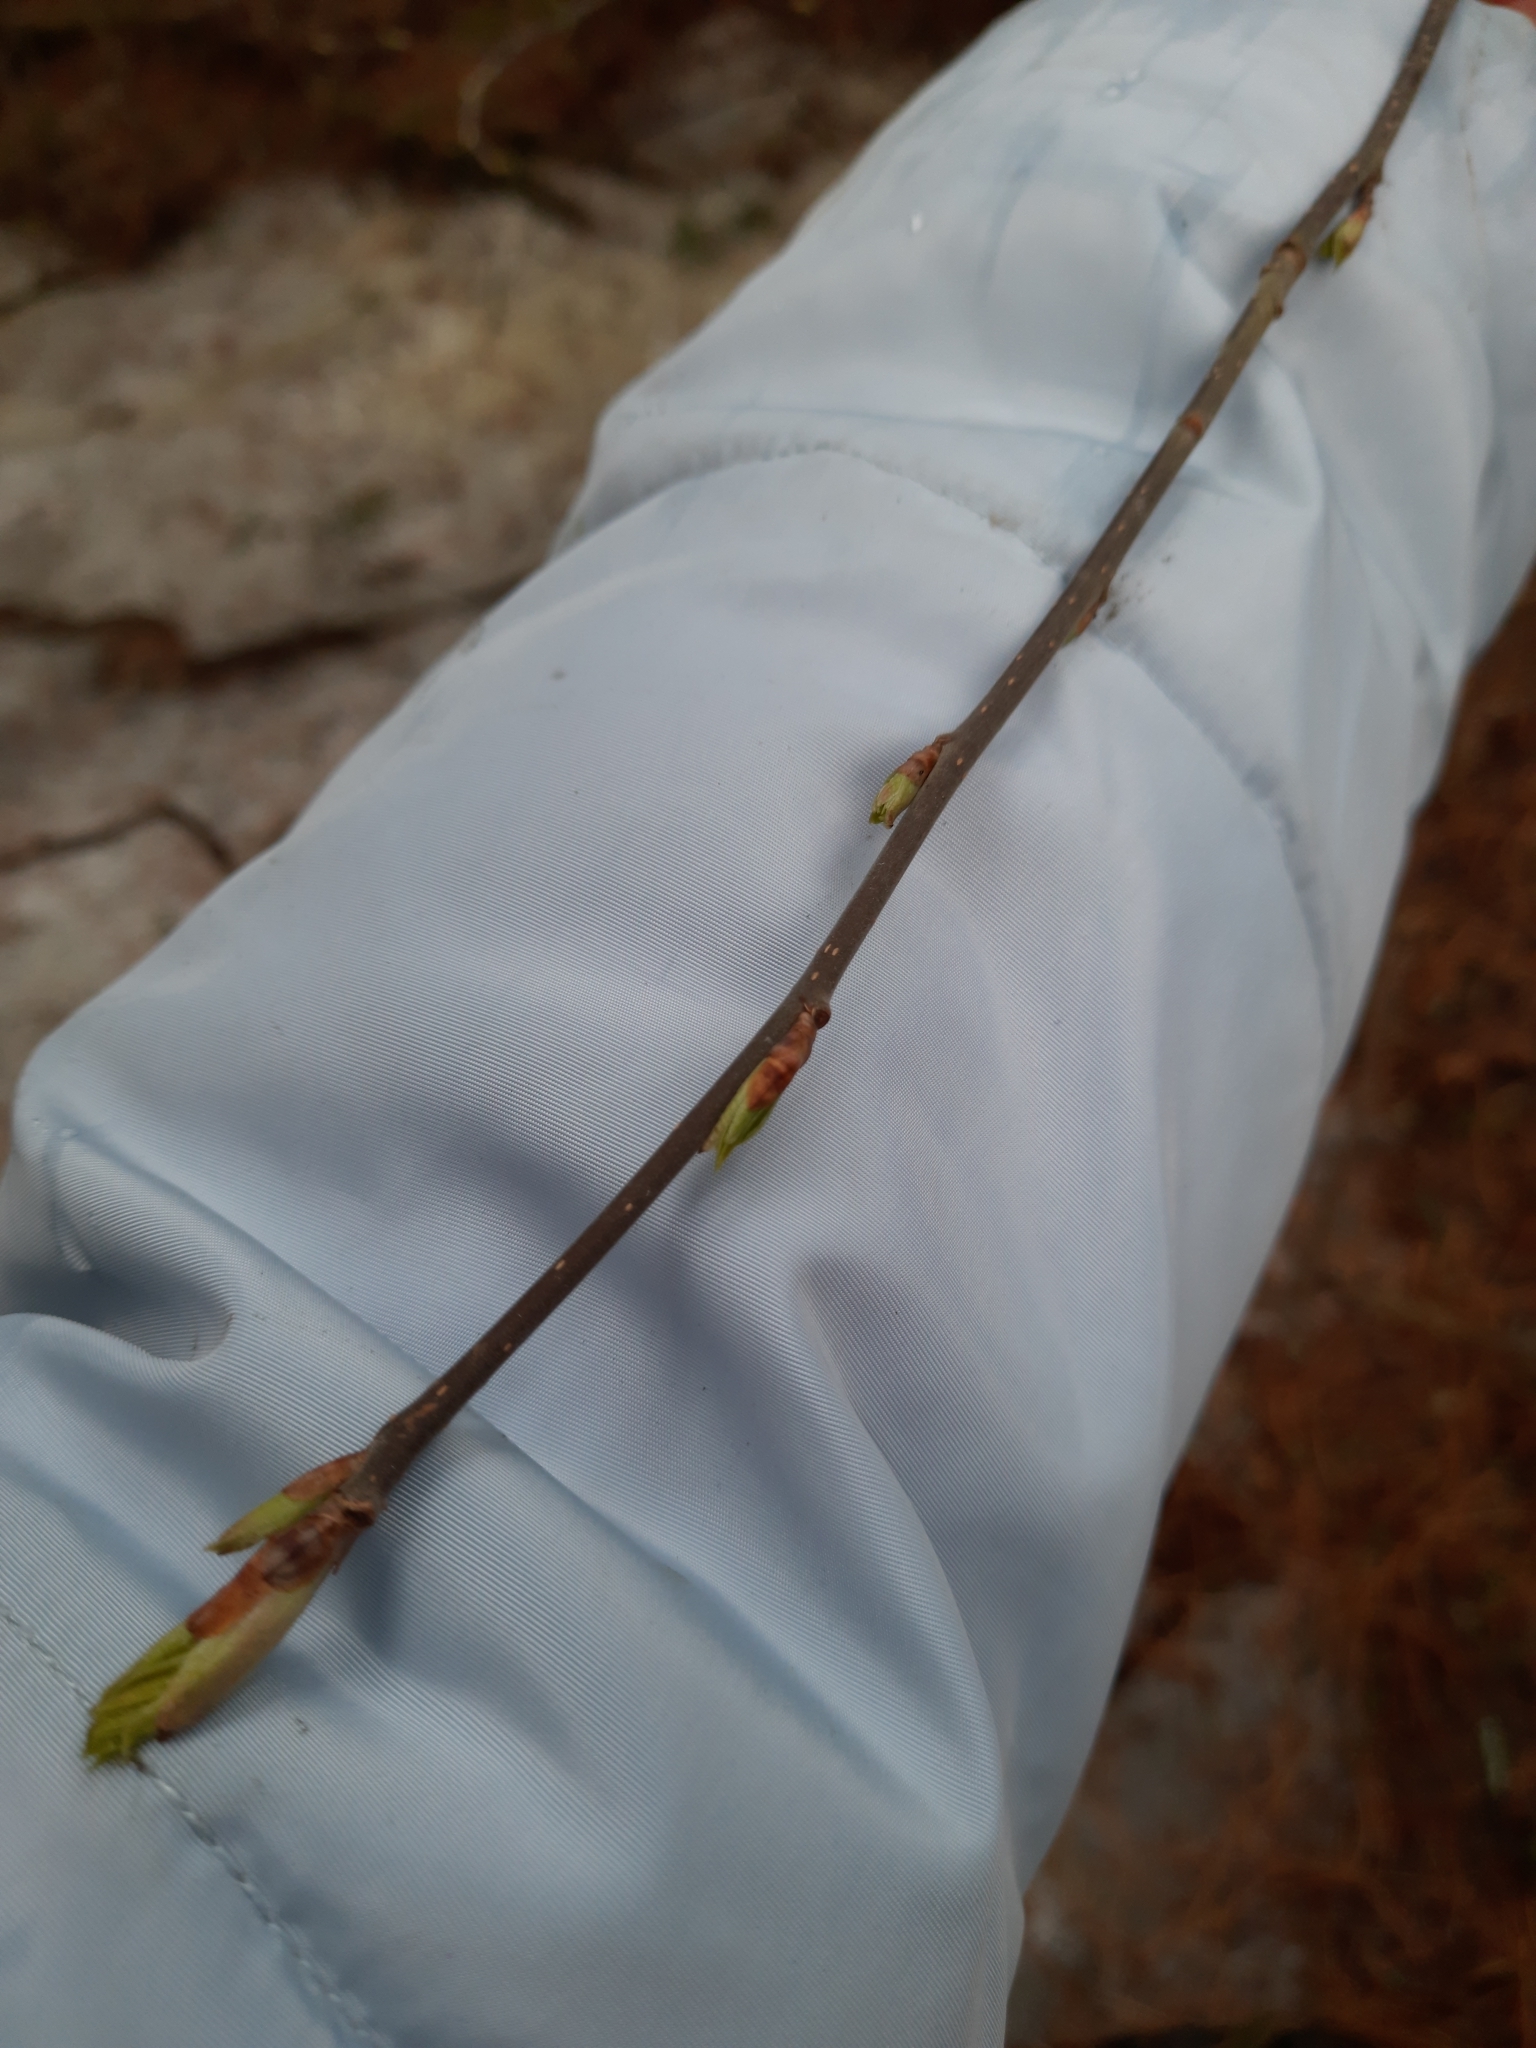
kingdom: Plantae
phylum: Tracheophyta
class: Magnoliopsida
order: Rosales
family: Rosaceae
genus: Prunus
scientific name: Prunus padus
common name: Bird cherry
